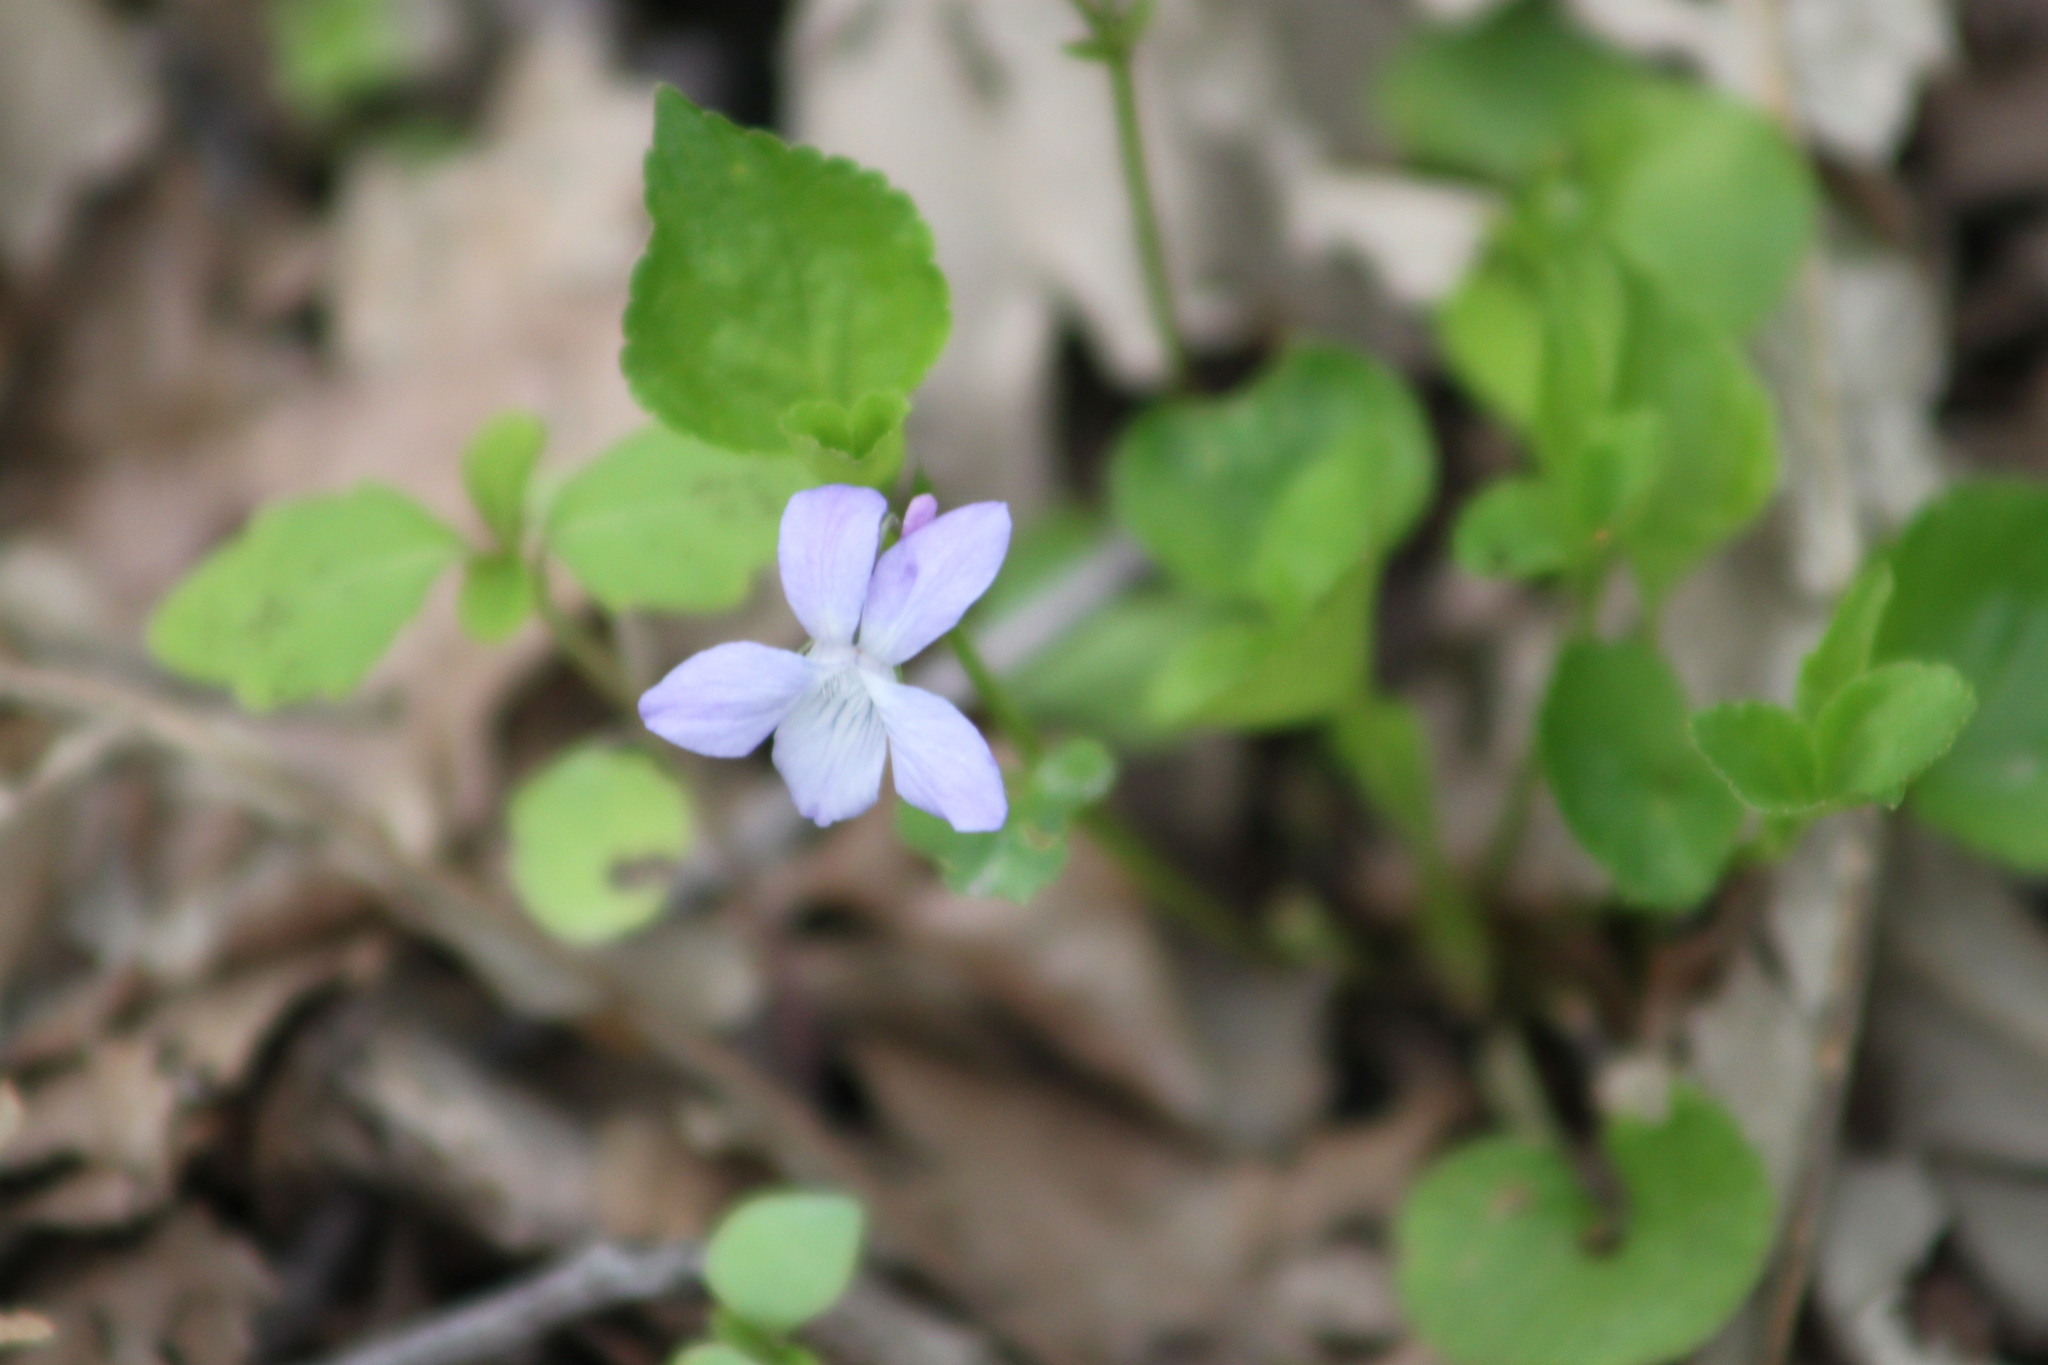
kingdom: Plantae
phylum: Tracheophyta
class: Magnoliopsida
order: Malpighiales
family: Violaceae
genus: Viola
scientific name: Viola labradorica
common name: Labrador violet
